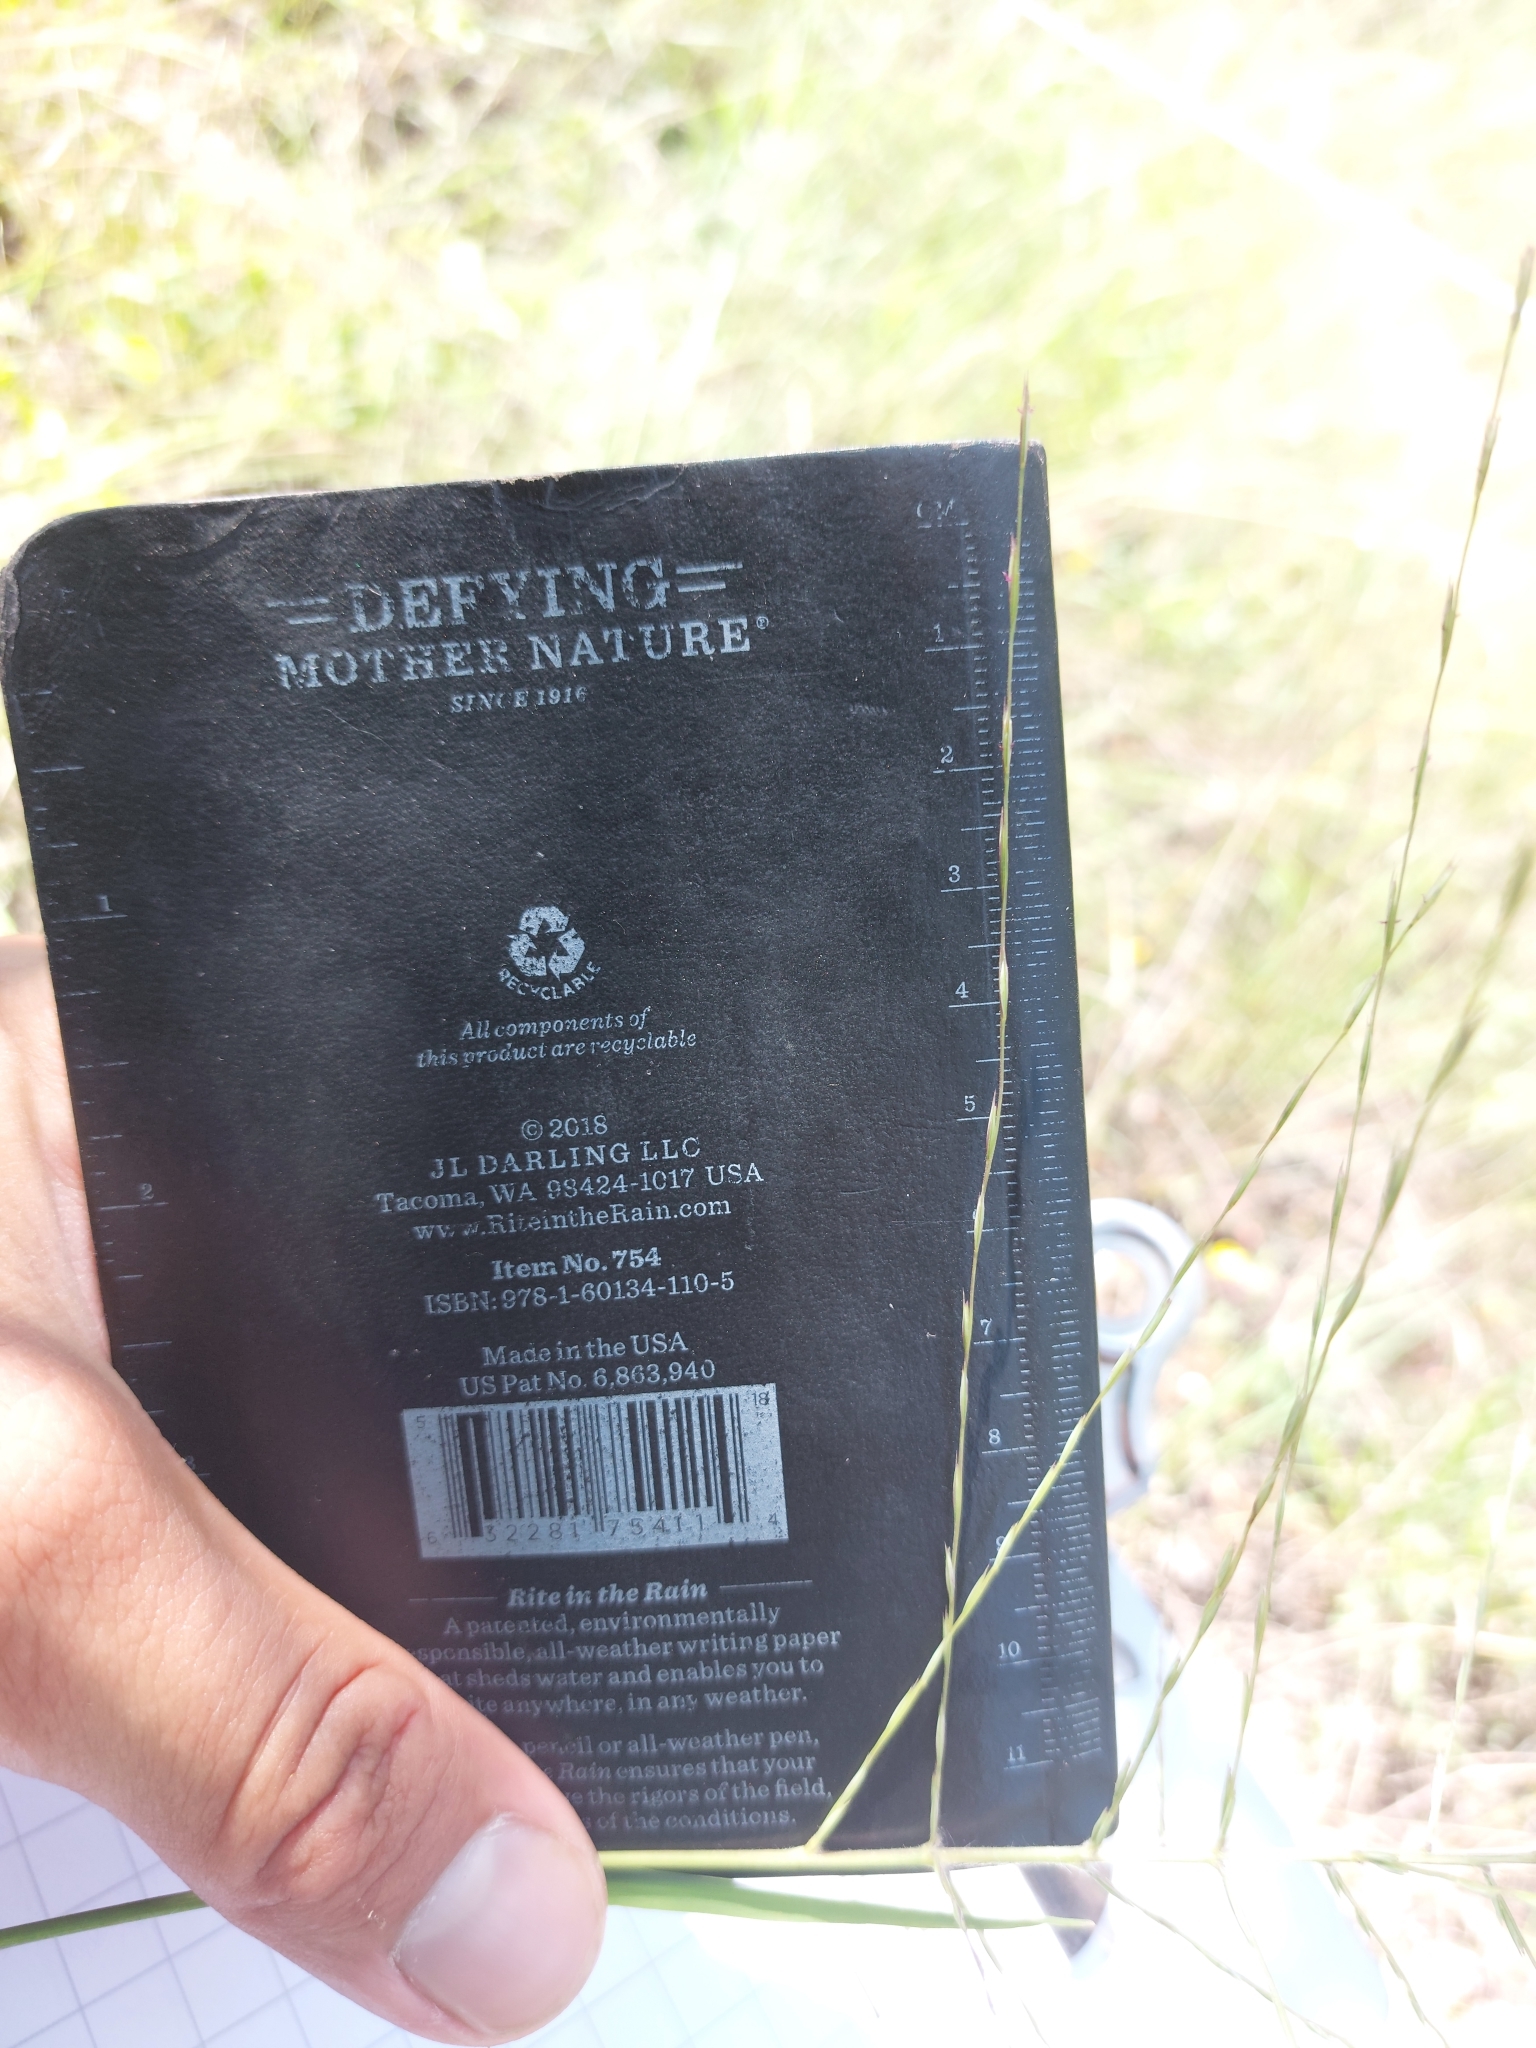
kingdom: Plantae
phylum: Tracheophyta
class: Liliopsida
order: Poales
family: Poaceae
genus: Trichoneura
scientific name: Trichoneura grandiglumis
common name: Rolling grass
